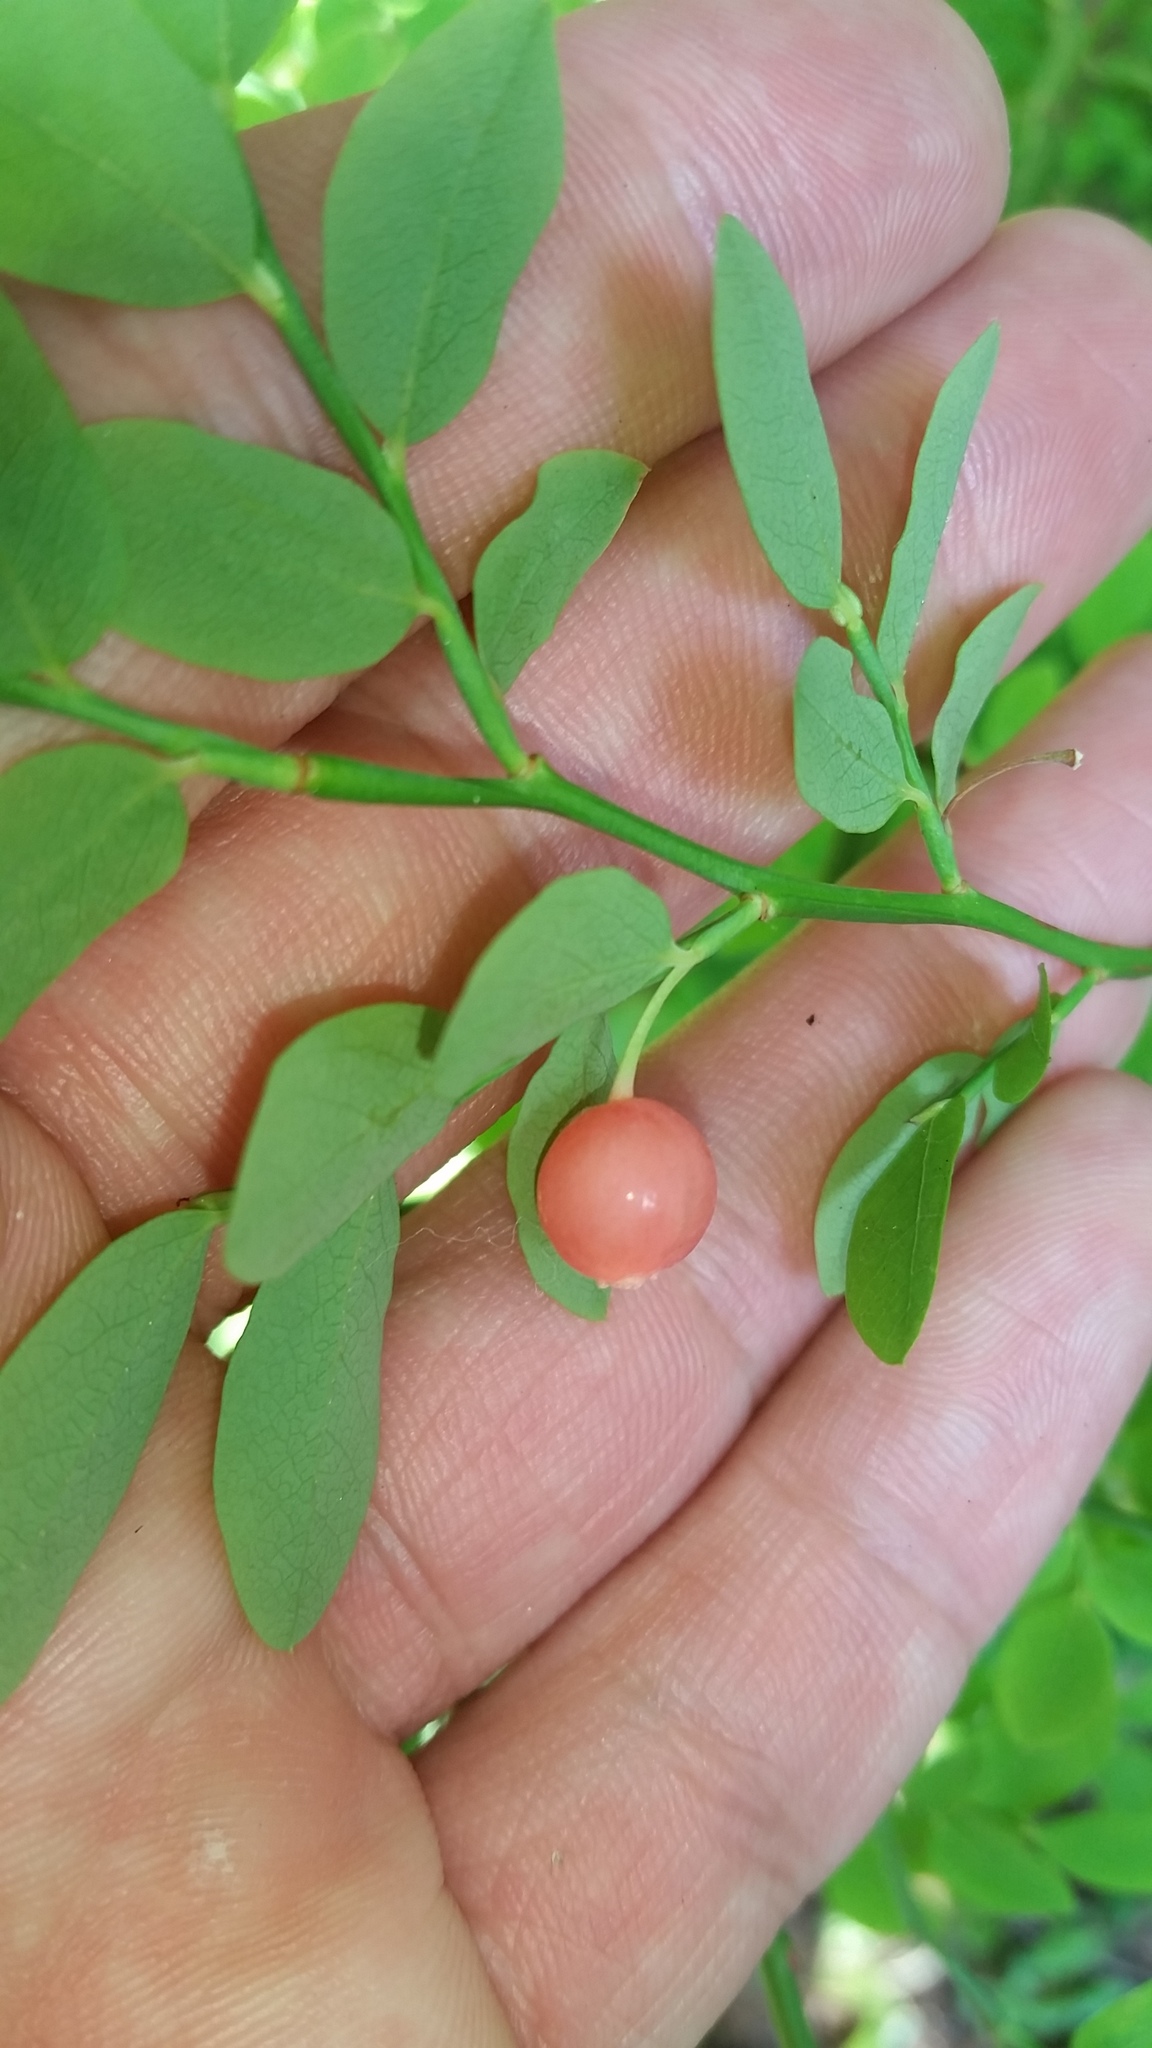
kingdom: Plantae
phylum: Tracheophyta
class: Magnoliopsida
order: Ericales
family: Ericaceae
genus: Vaccinium
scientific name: Vaccinium parvifolium
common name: Red-huckleberry
